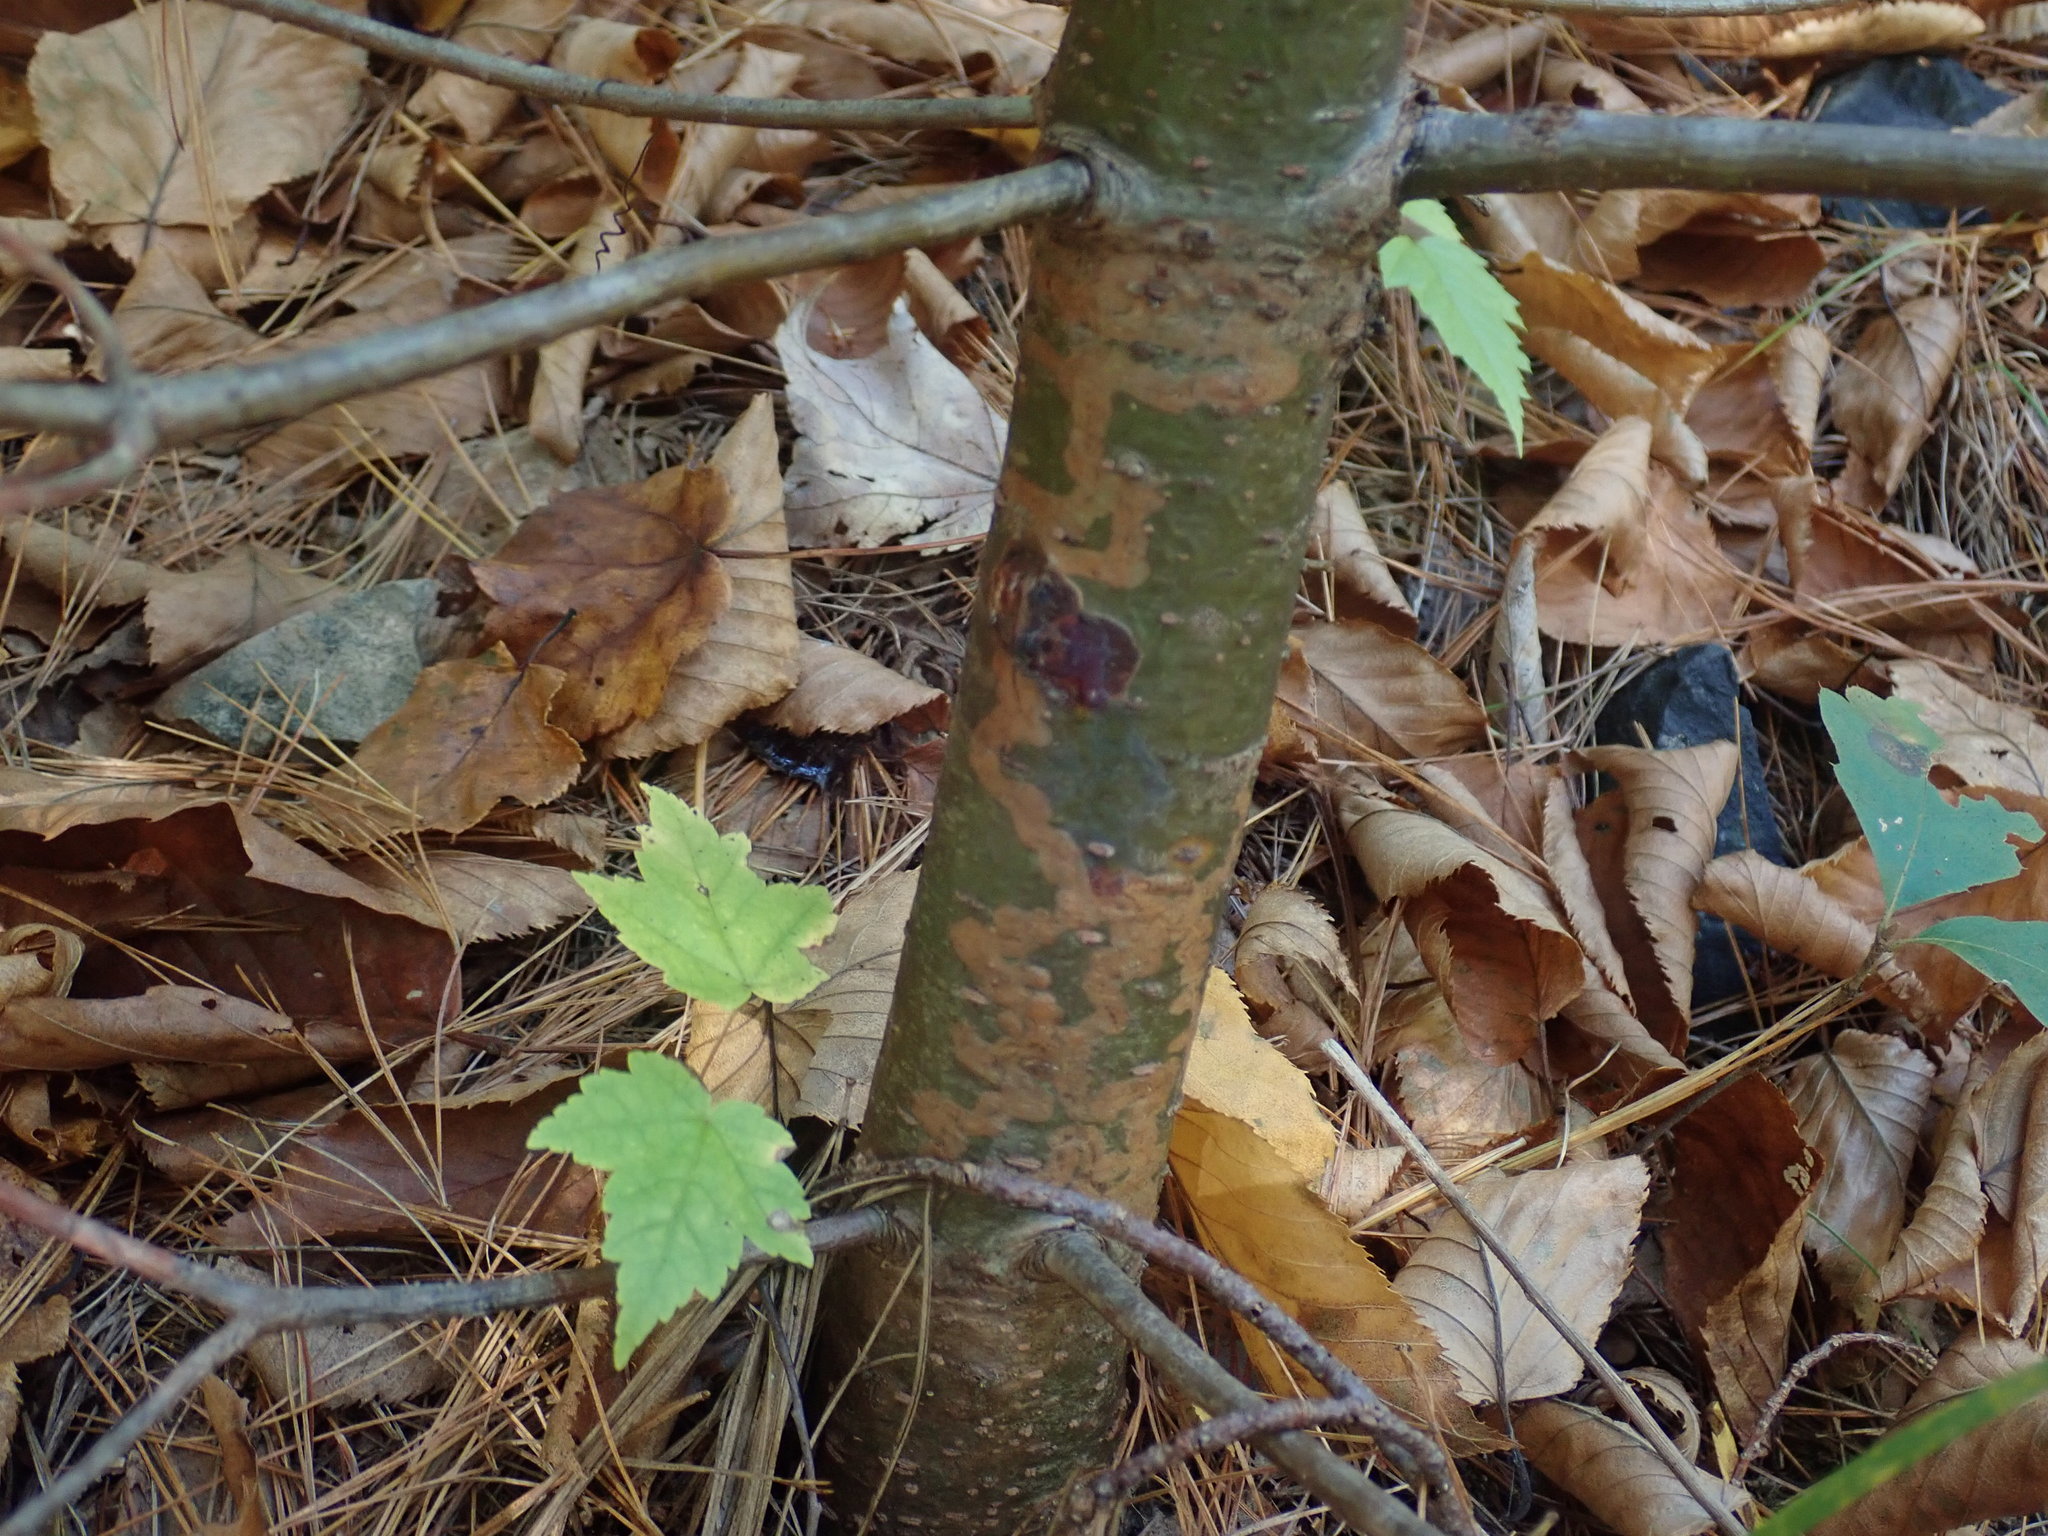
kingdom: Animalia
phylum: Arthropoda
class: Insecta
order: Lepidoptera
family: Gracillariidae
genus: Marmara
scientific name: Marmara fasciella
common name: White pine barkminer moth
